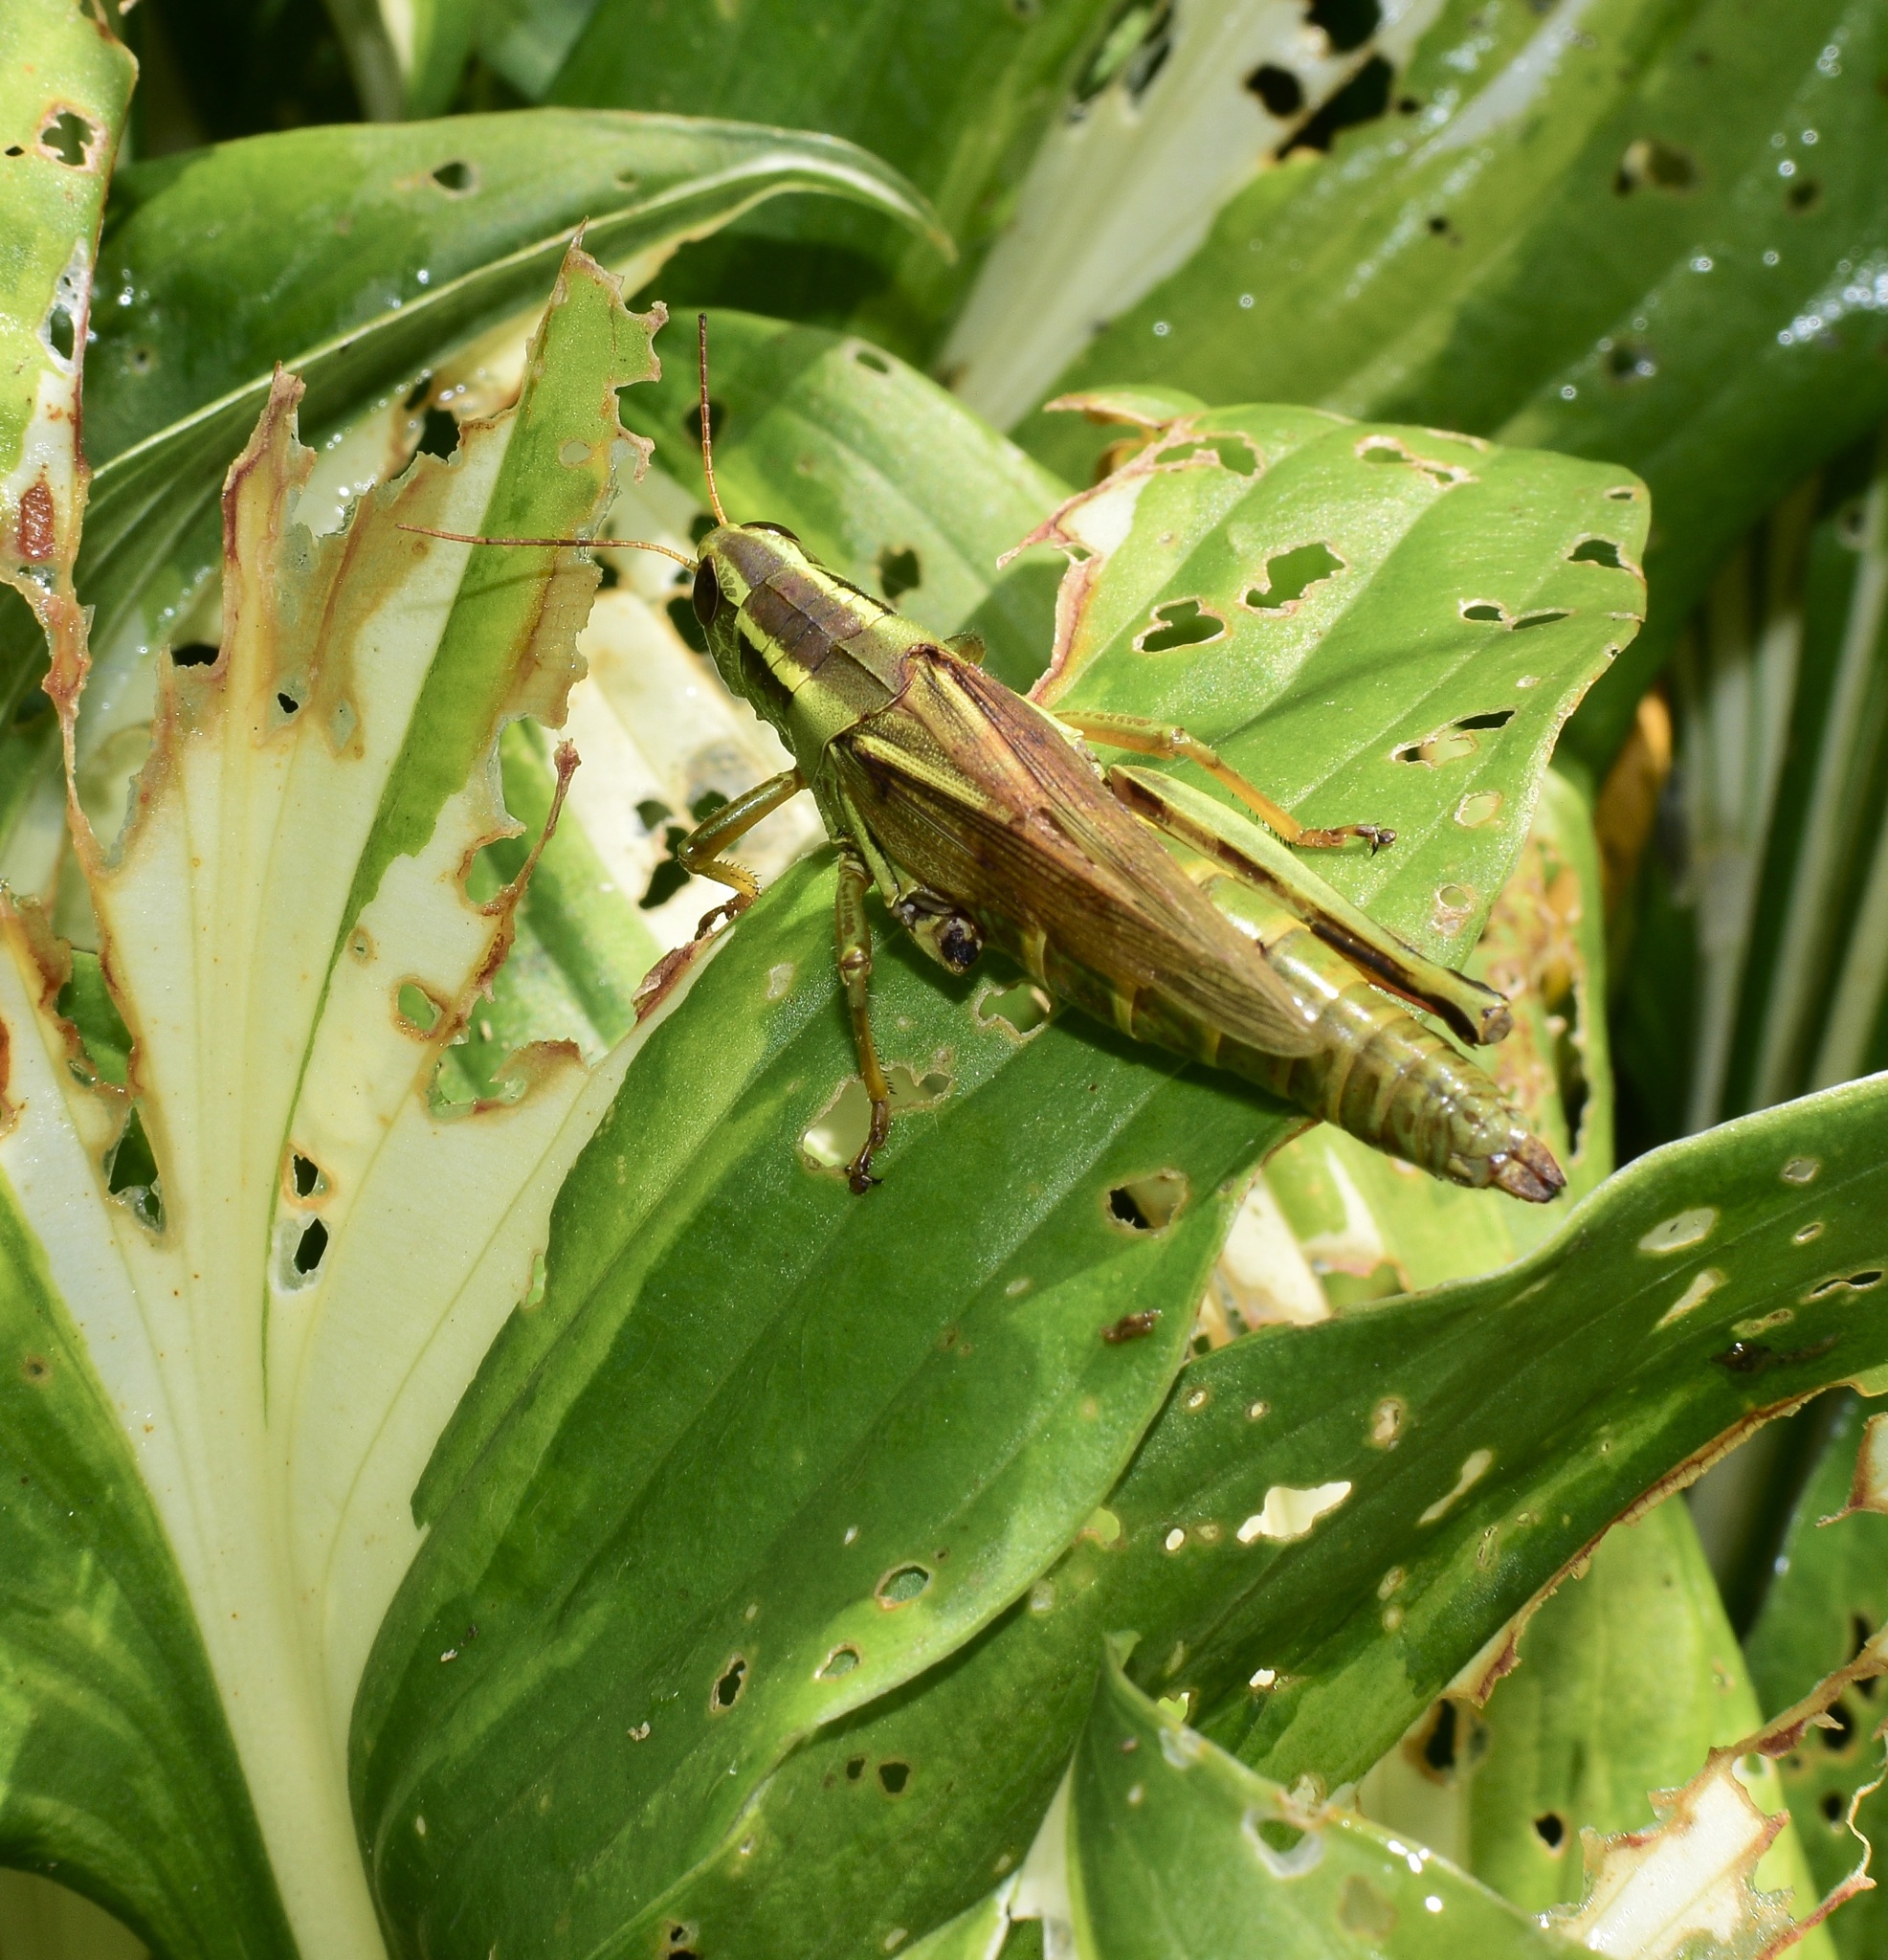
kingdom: Animalia
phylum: Arthropoda
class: Insecta
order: Orthoptera
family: Acrididae
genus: Melanoplus
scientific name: Melanoplus bivittatus
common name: Two-striped grasshopper
